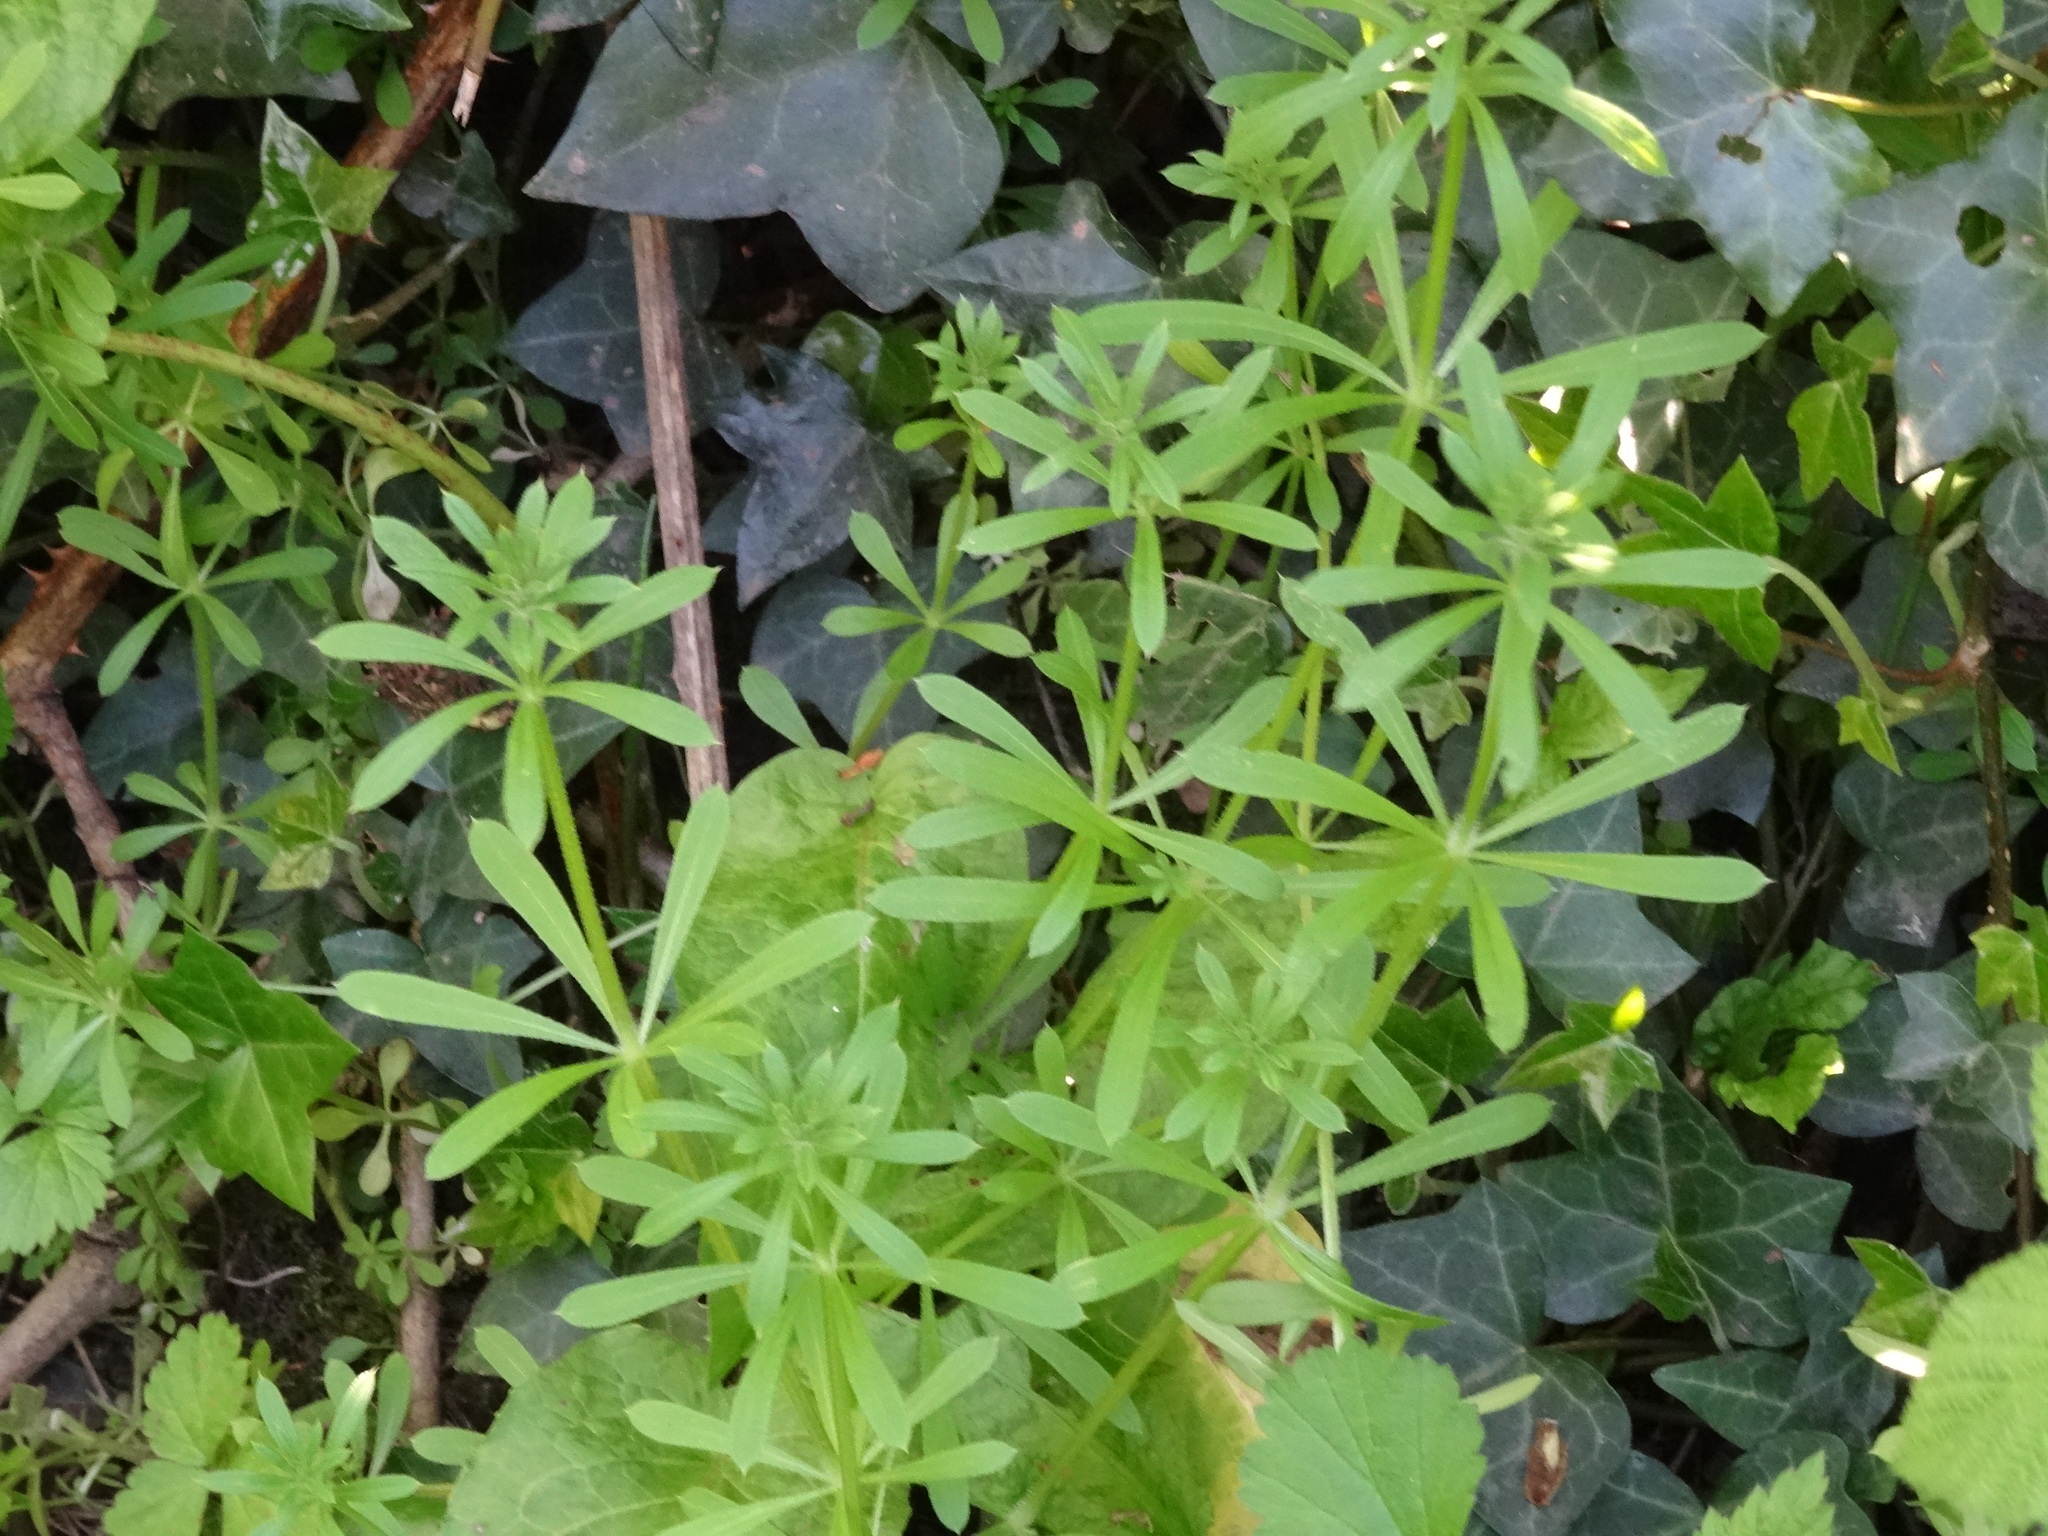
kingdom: Plantae
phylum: Tracheophyta
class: Magnoliopsida
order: Gentianales
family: Rubiaceae
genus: Galium
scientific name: Galium aparine
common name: Cleavers
